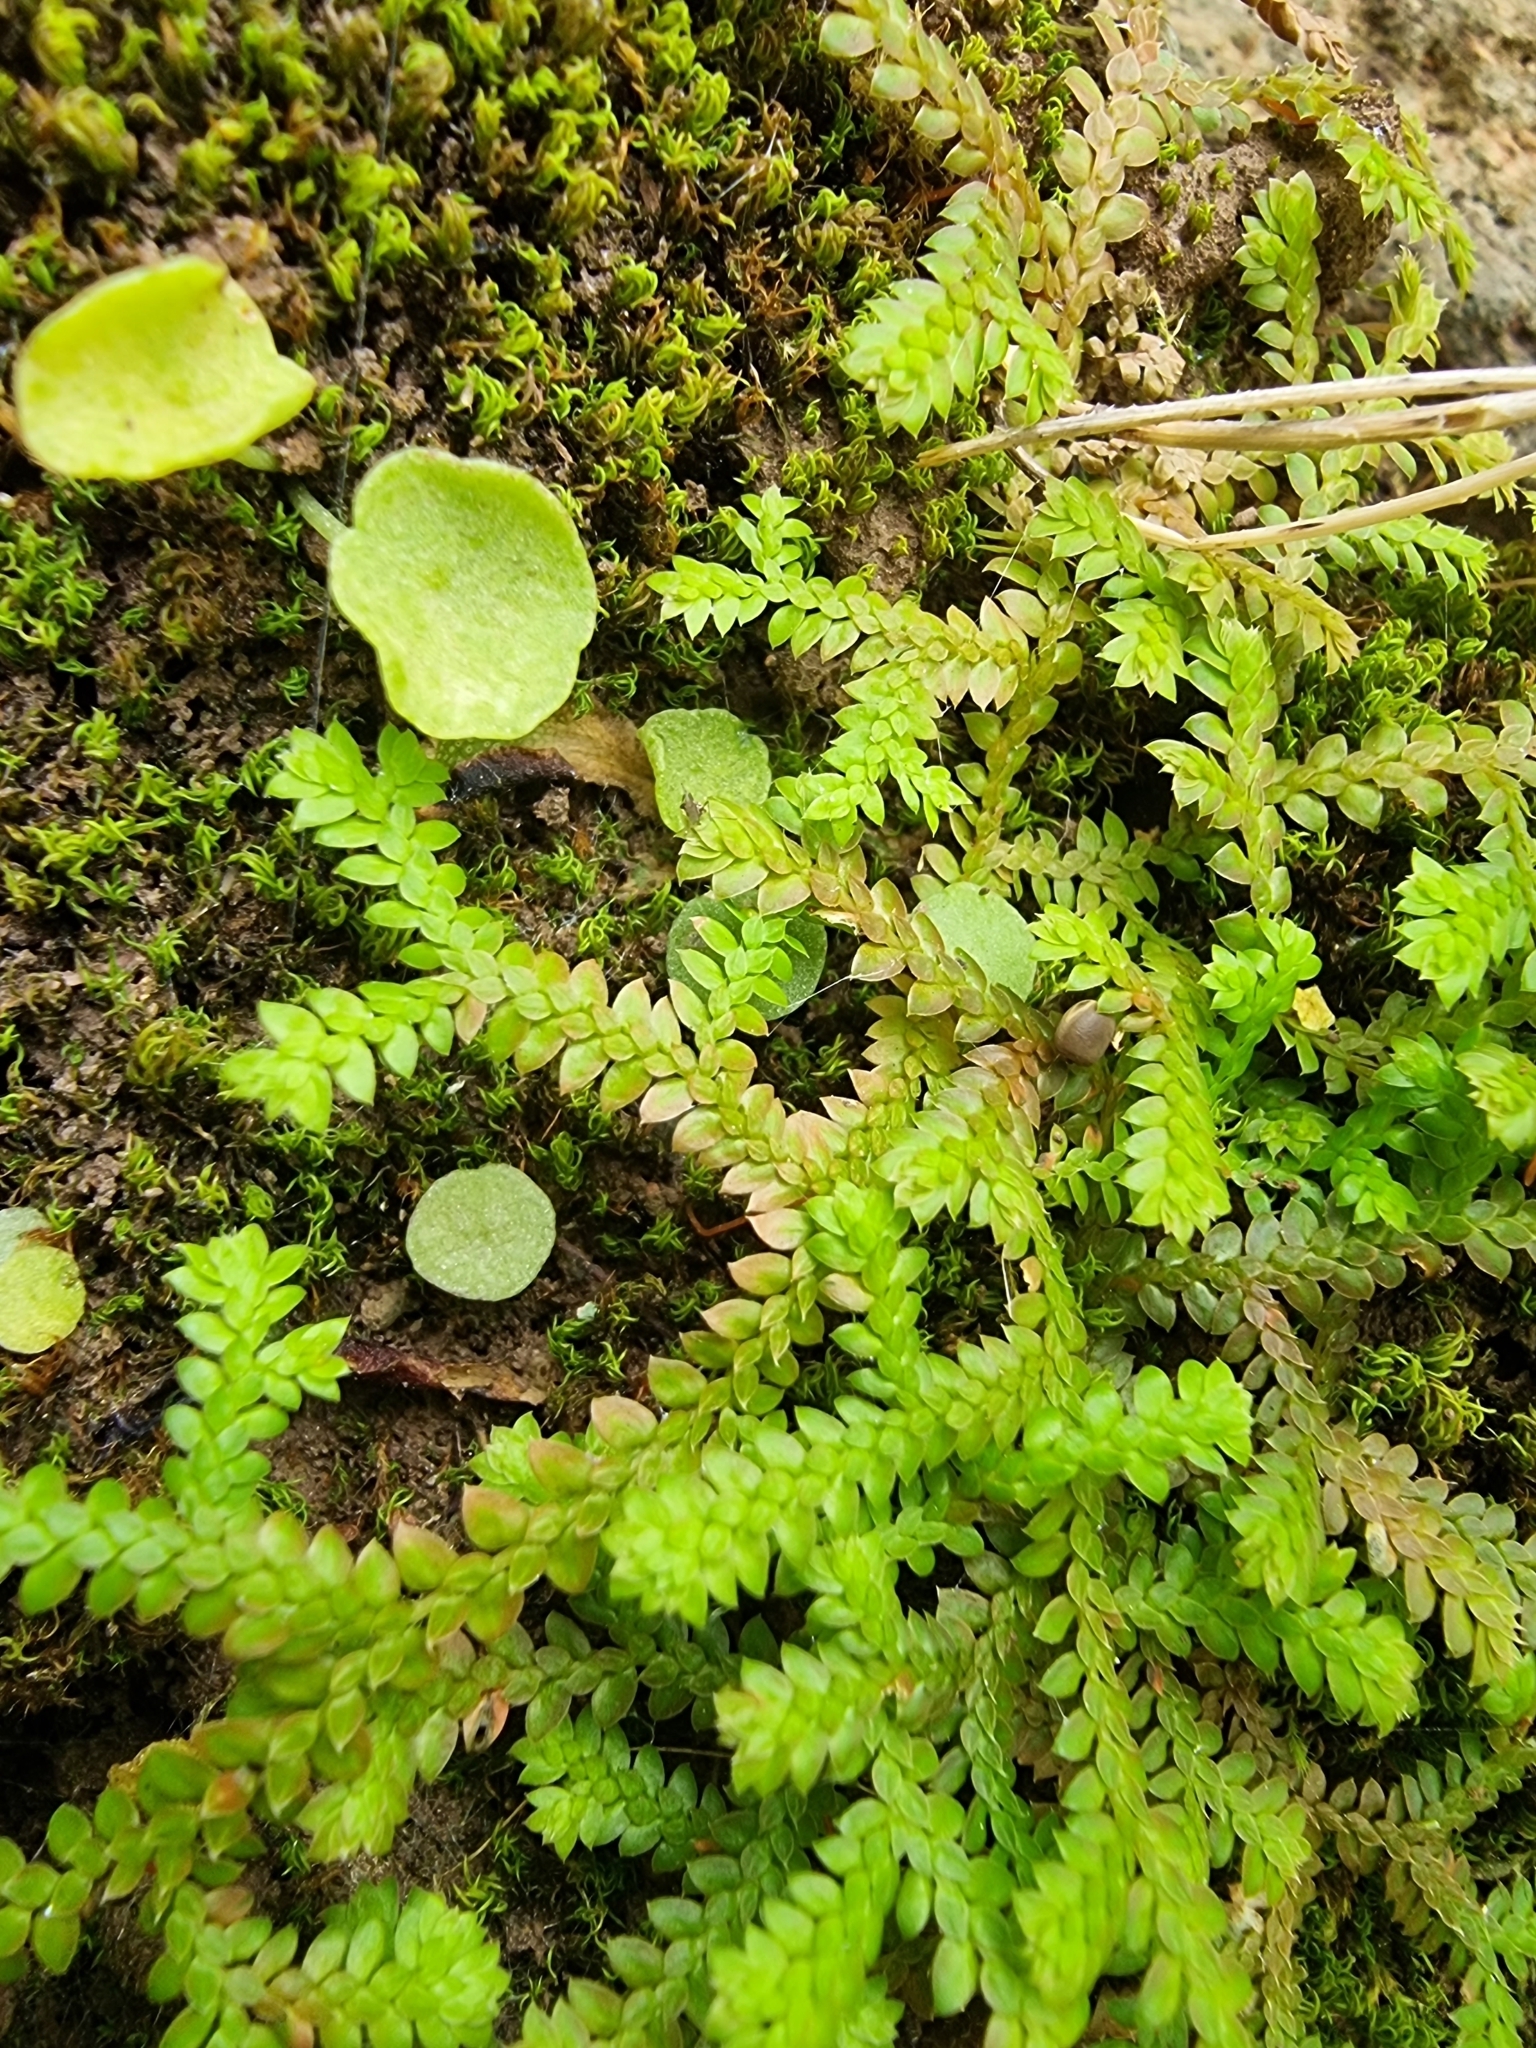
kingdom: Plantae
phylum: Tracheophyta
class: Lycopodiopsida
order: Selaginellales
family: Selaginellaceae
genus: Selaginella
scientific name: Selaginella denticulata
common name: Toothed-leaved clubmoss
